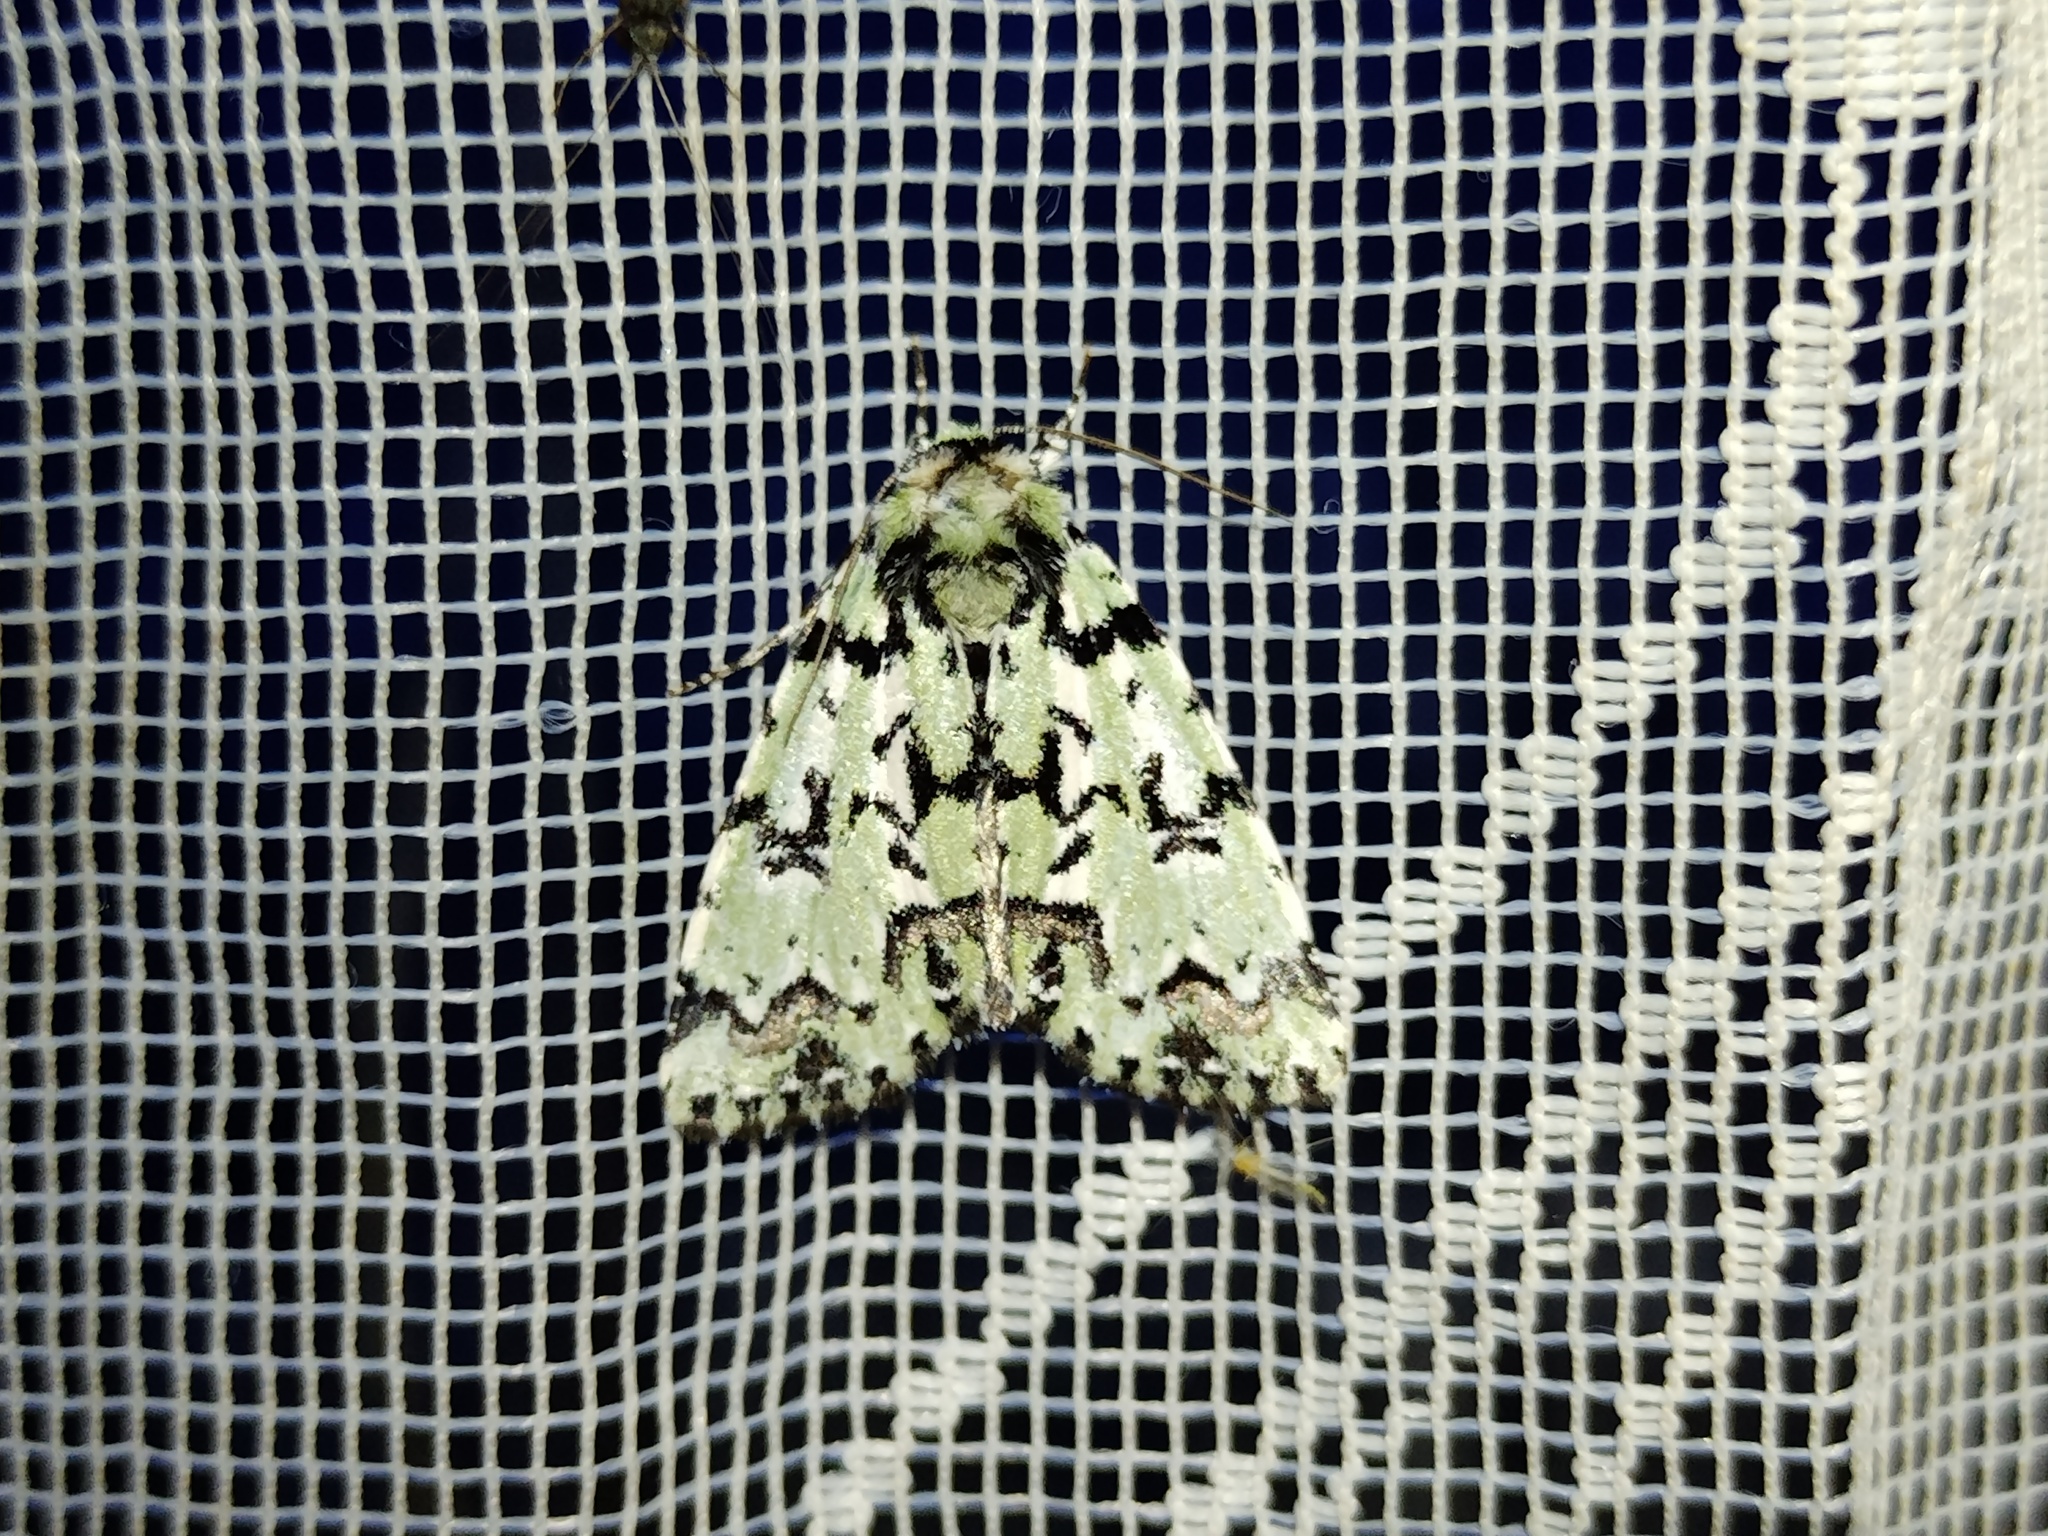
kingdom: Animalia
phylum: Arthropoda
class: Insecta
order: Lepidoptera
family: Noctuidae
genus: Moma
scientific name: Moma alpium
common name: Scarce merveille du jour
